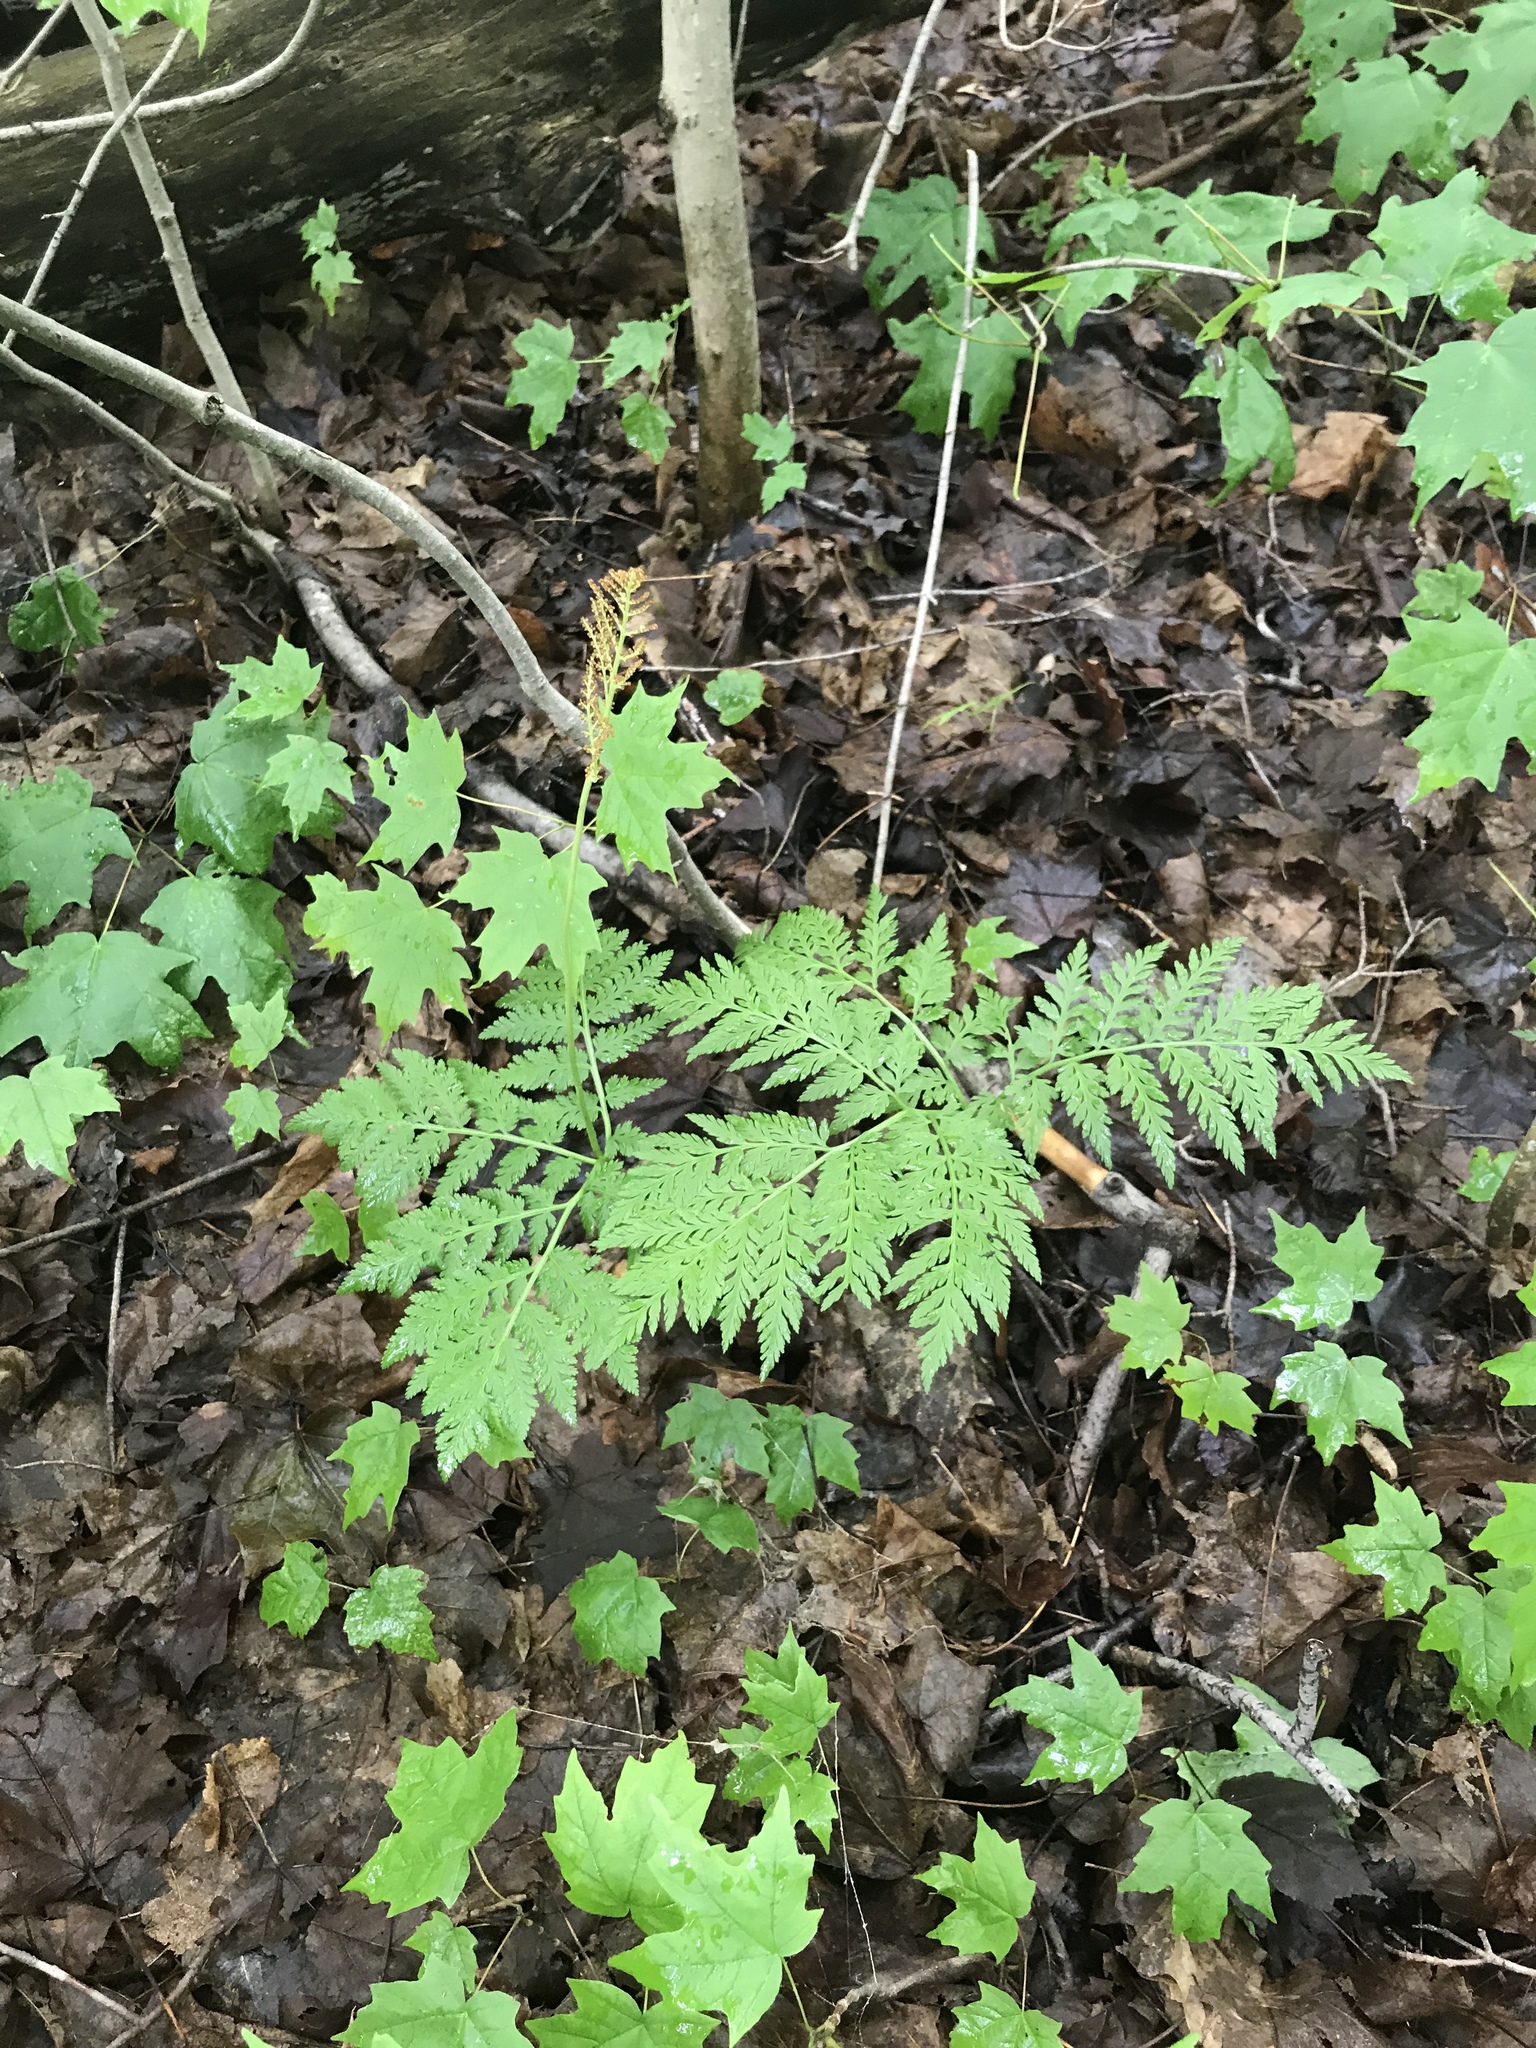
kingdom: Plantae
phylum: Tracheophyta
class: Polypodiopsida
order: Ophioglossales
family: Ophioglossaceae
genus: Botrypus
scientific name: Botrypus virginianus
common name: Common grapefern
